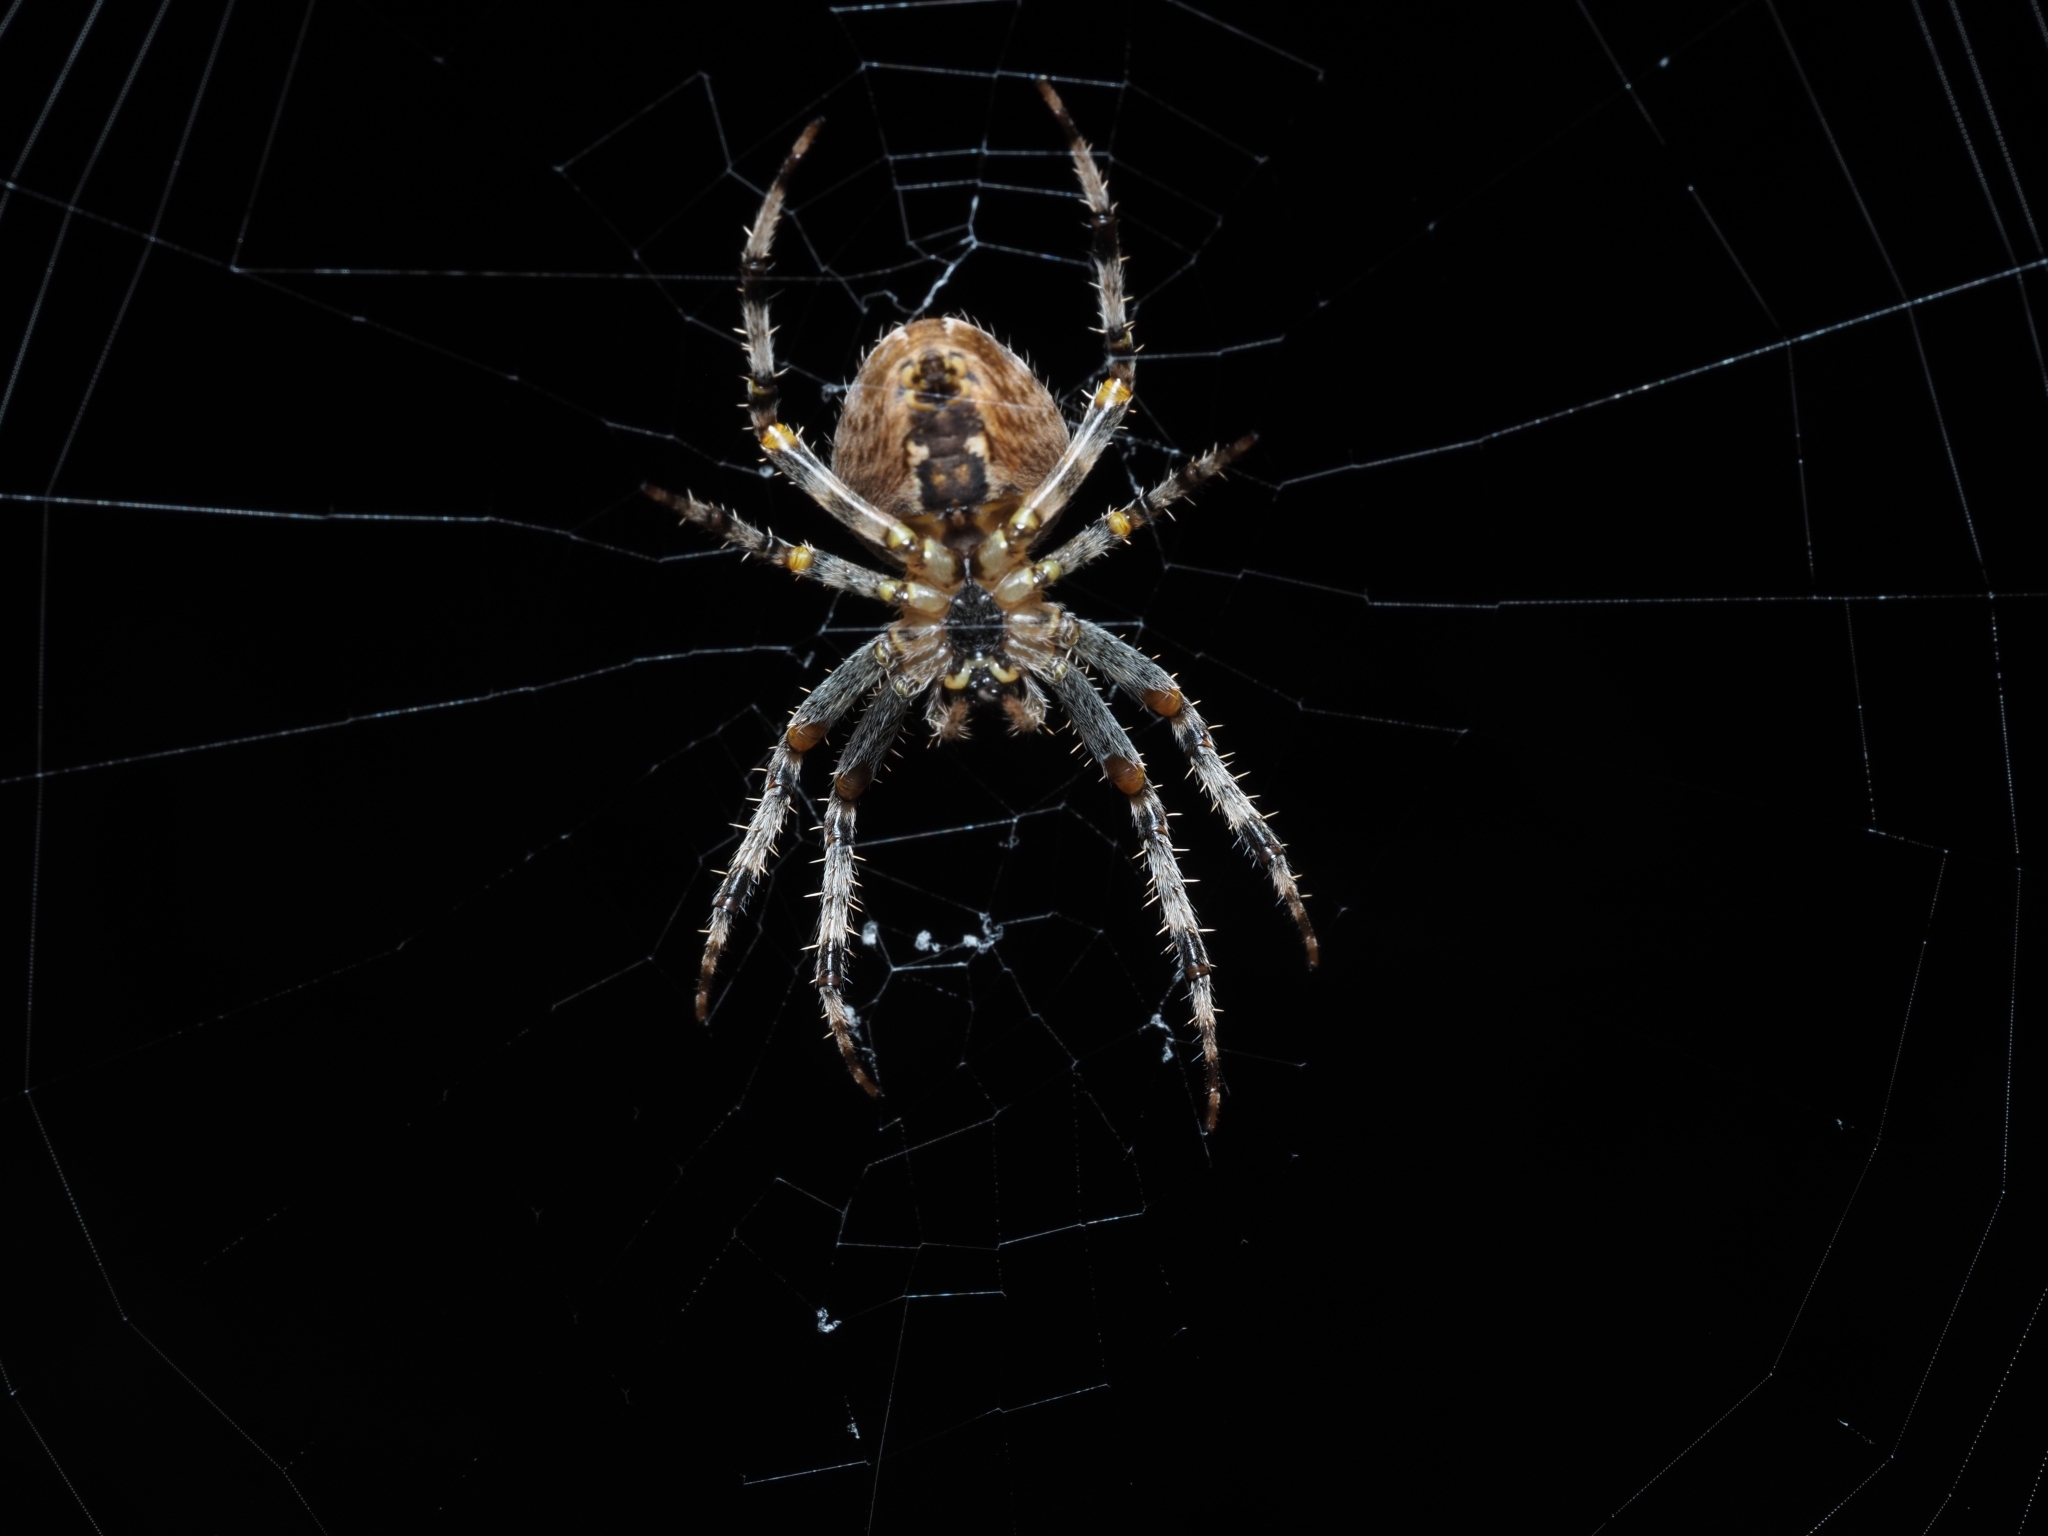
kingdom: Animalia
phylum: Arthropoda
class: Arachnida
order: Araneae
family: Araneidae
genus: Araneus
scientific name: Araneus diadematus
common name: Cross orbweaver
